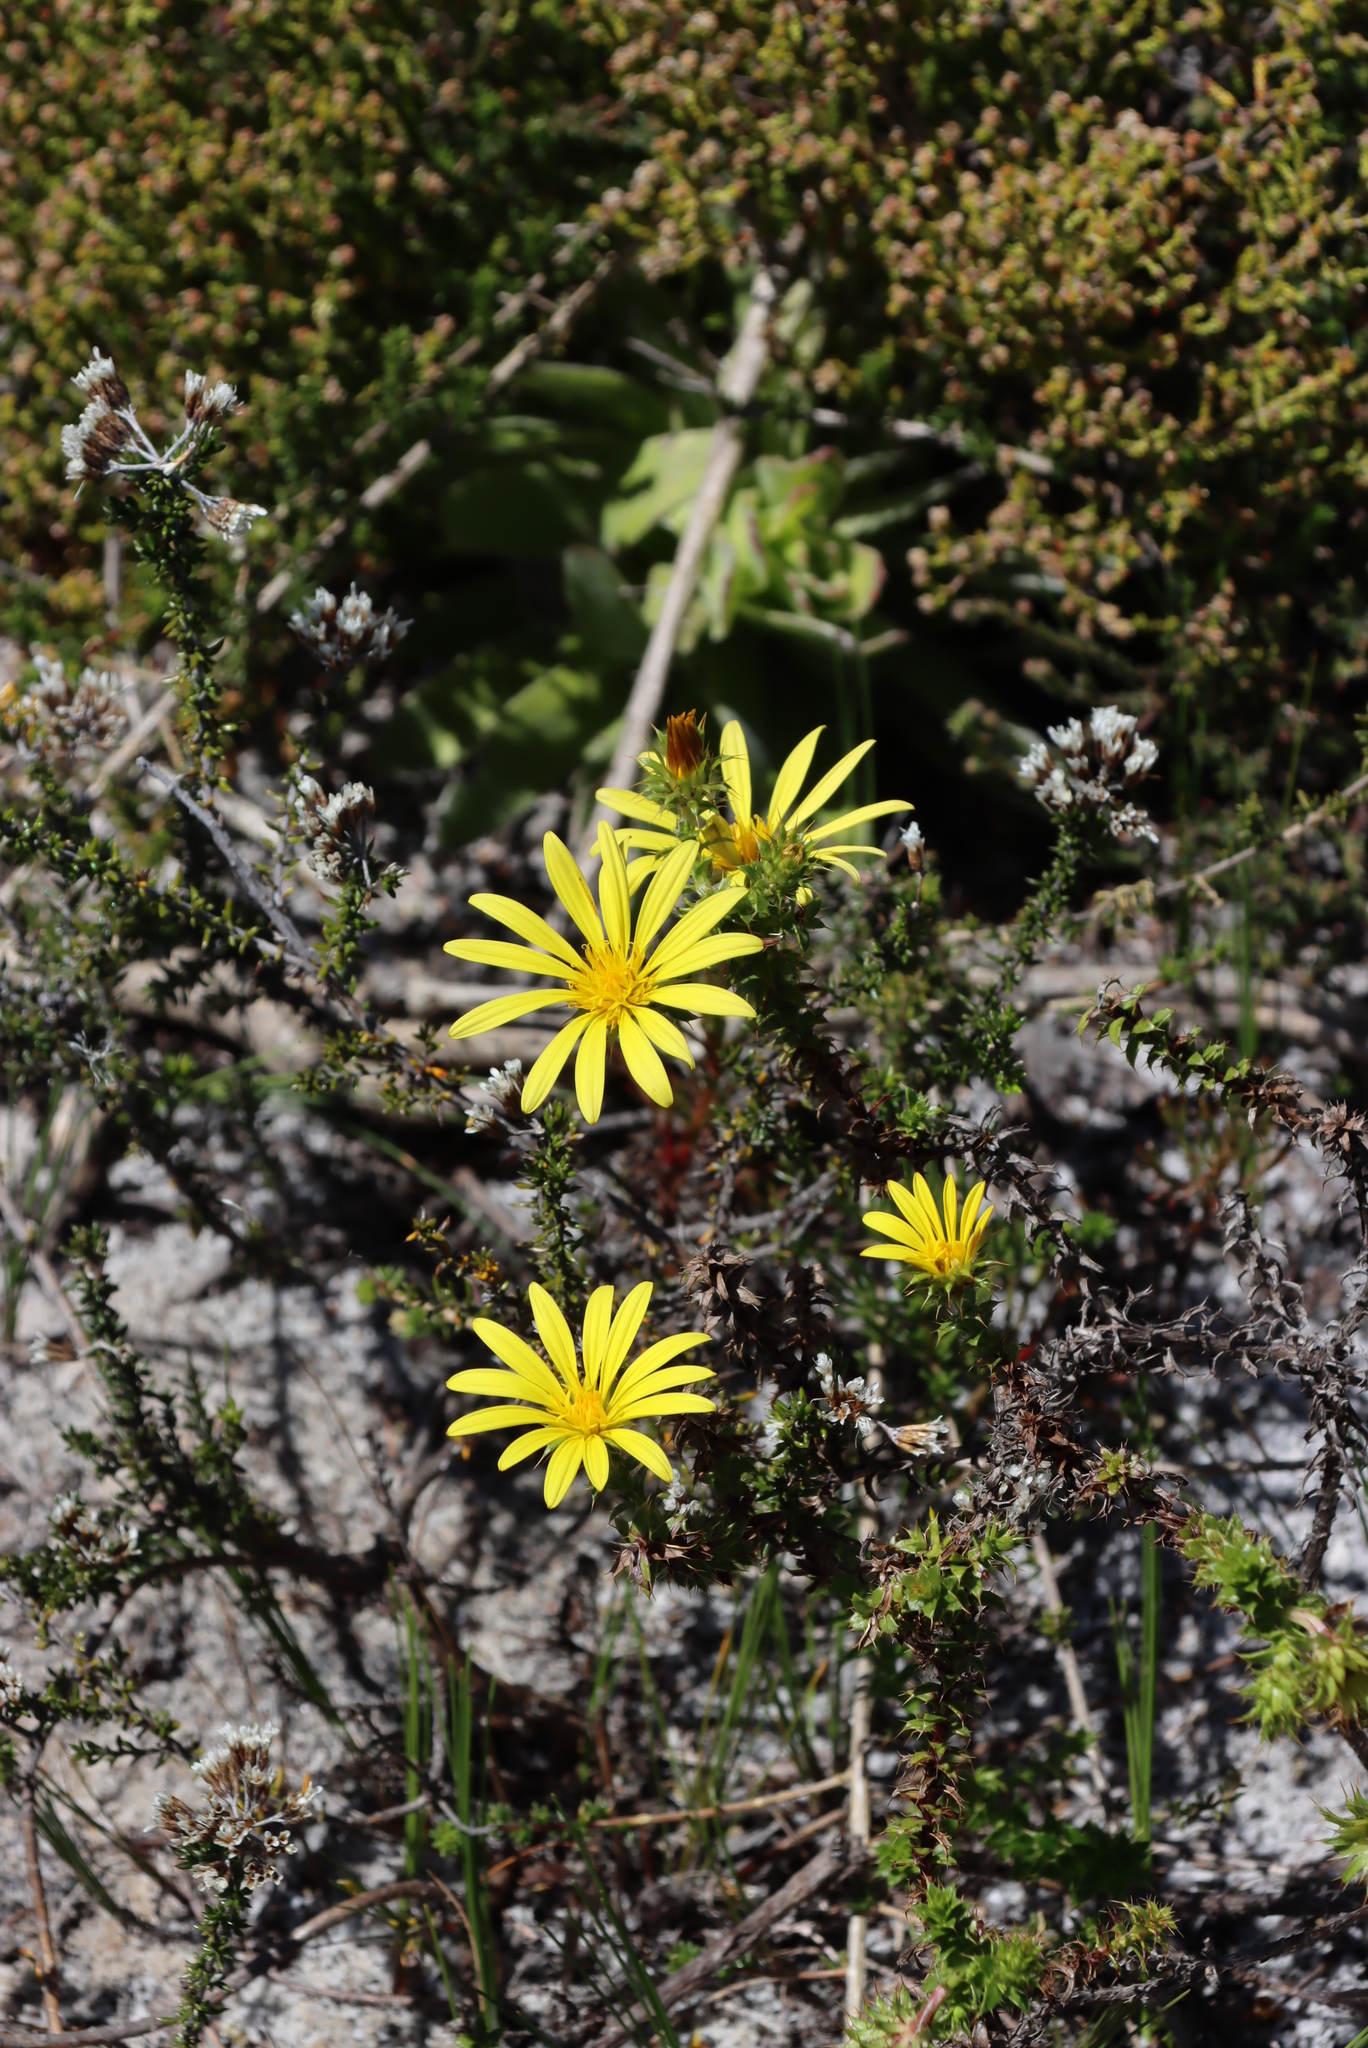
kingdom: Plantae
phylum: Tracheophyta
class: Magnoliopsida
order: Asterales
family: Asteraceae
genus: Cullumia
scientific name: Cullumia setosa
